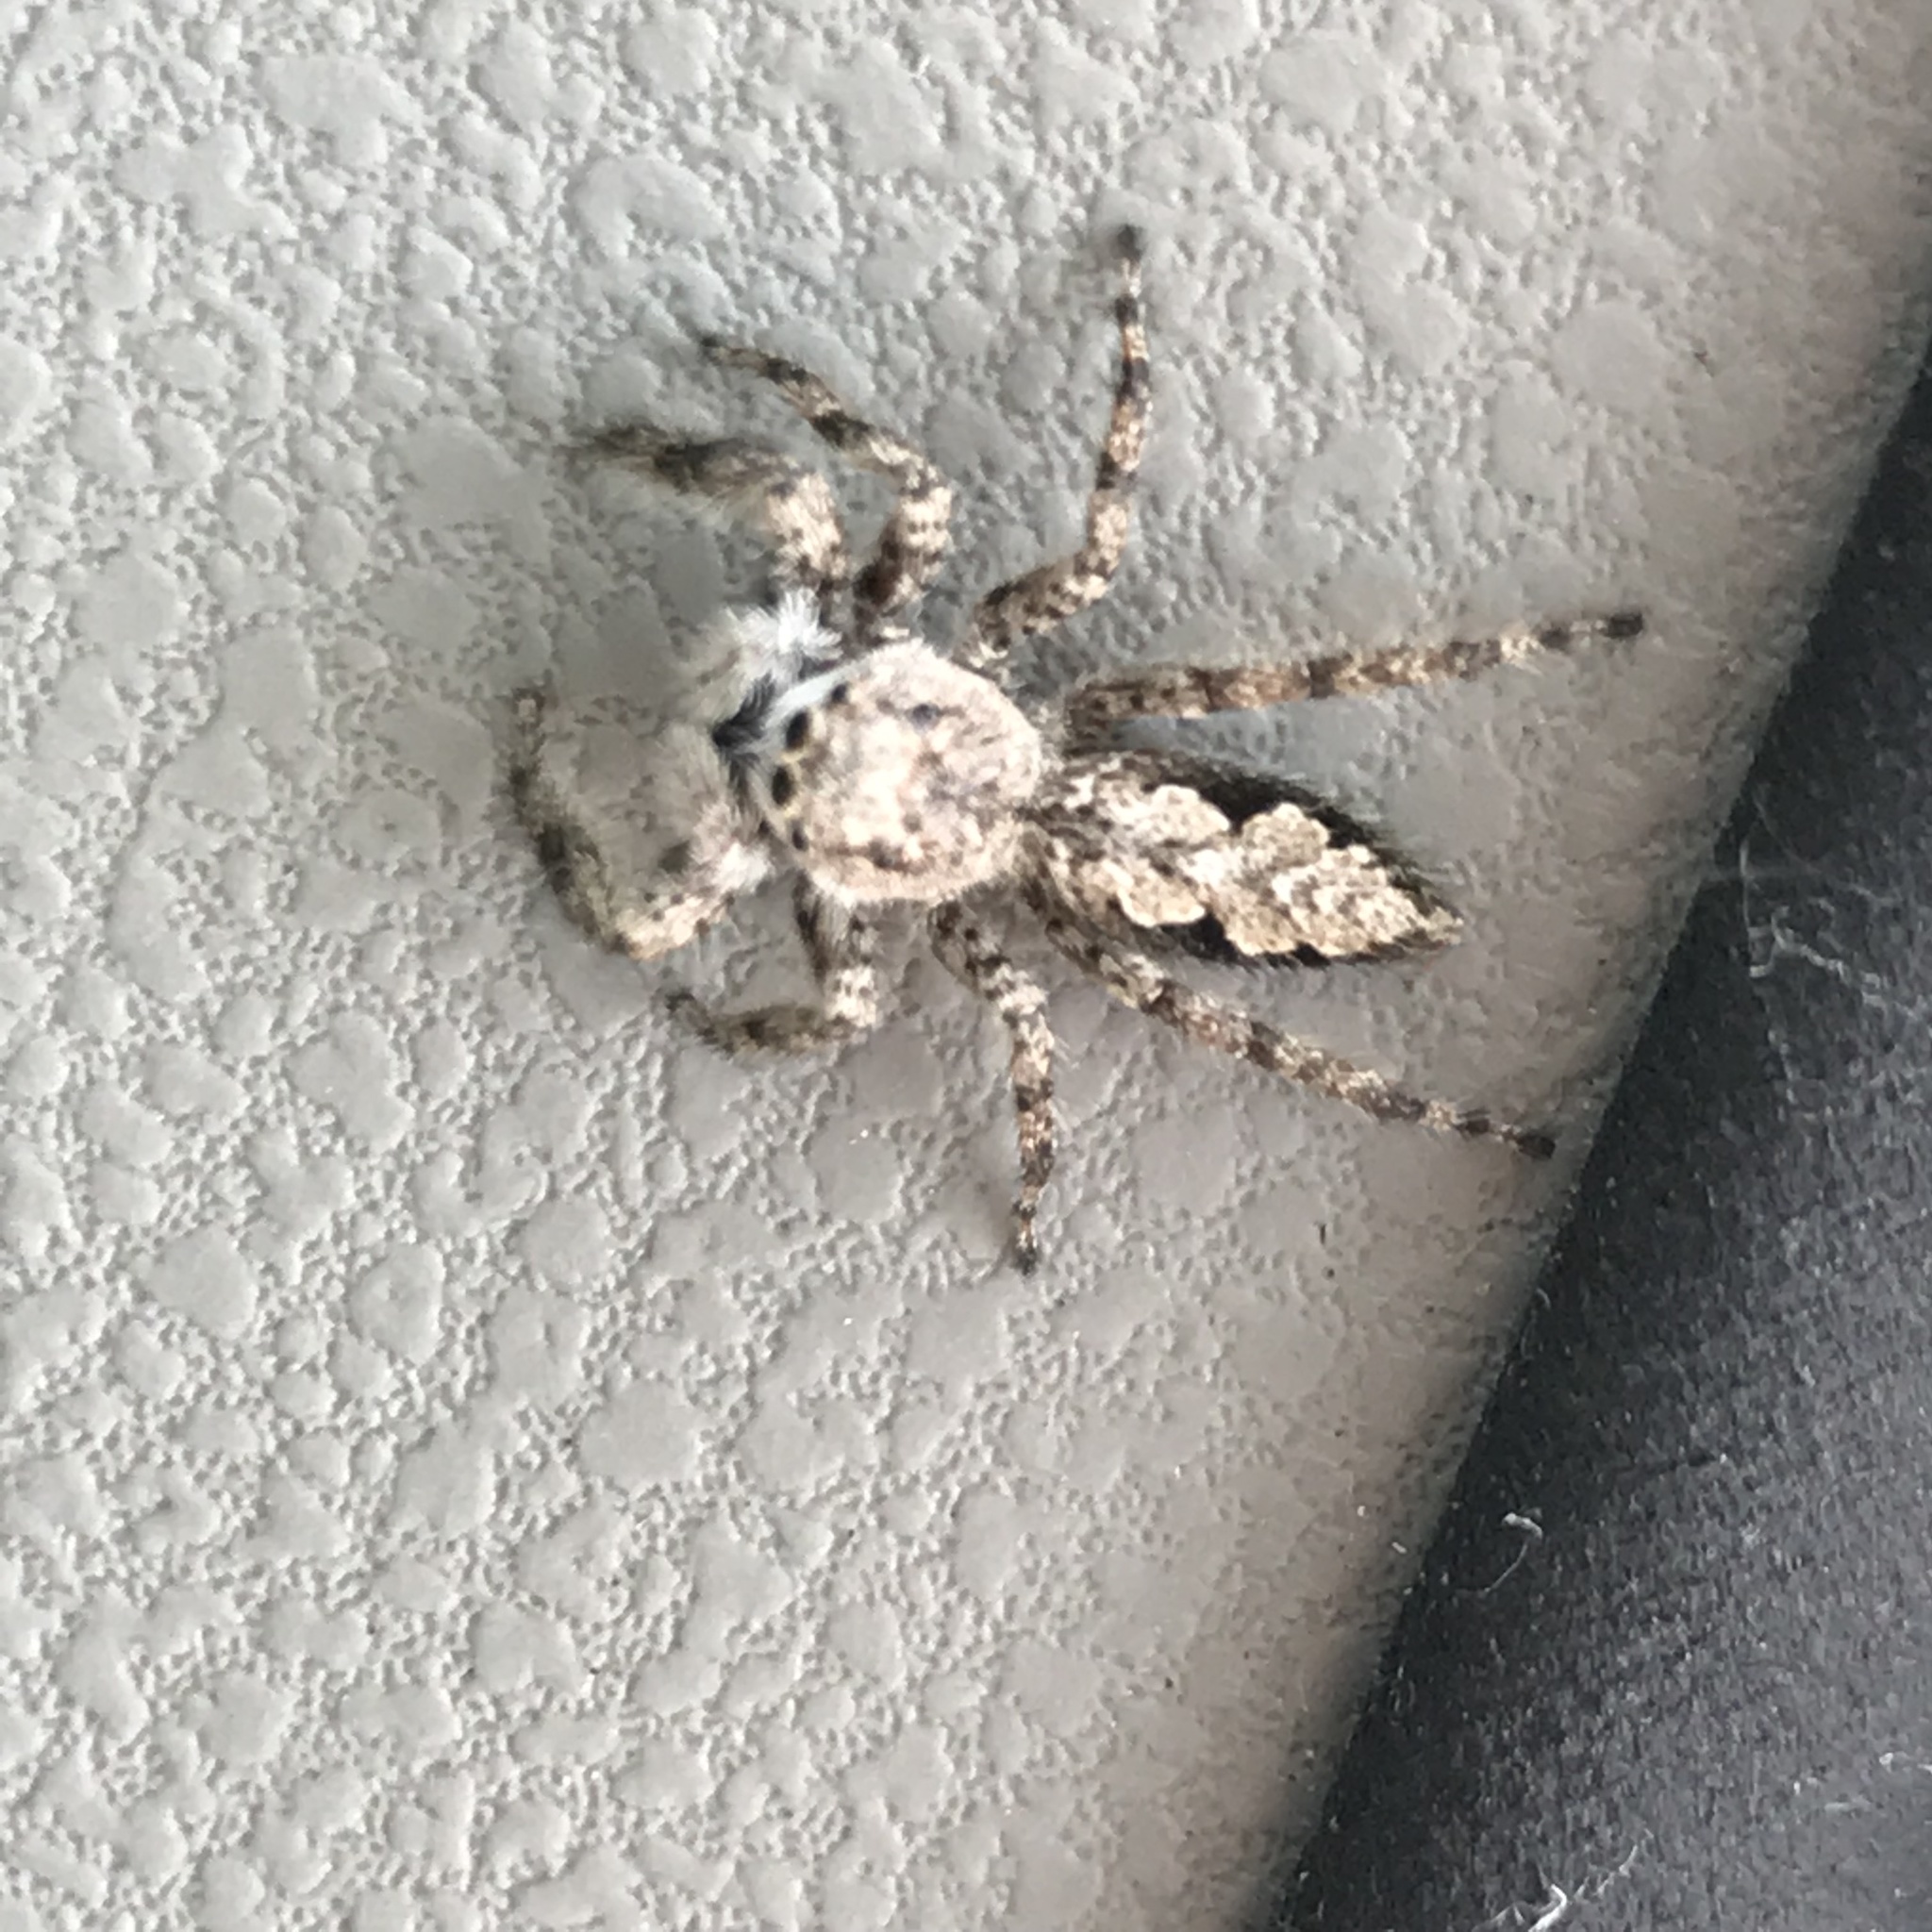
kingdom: Animalia
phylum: Arthropoda
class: Arachnida
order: Araneae
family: Salticidae
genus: Platycryptus
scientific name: Platycryptus undatus
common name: Tan jumping spider
